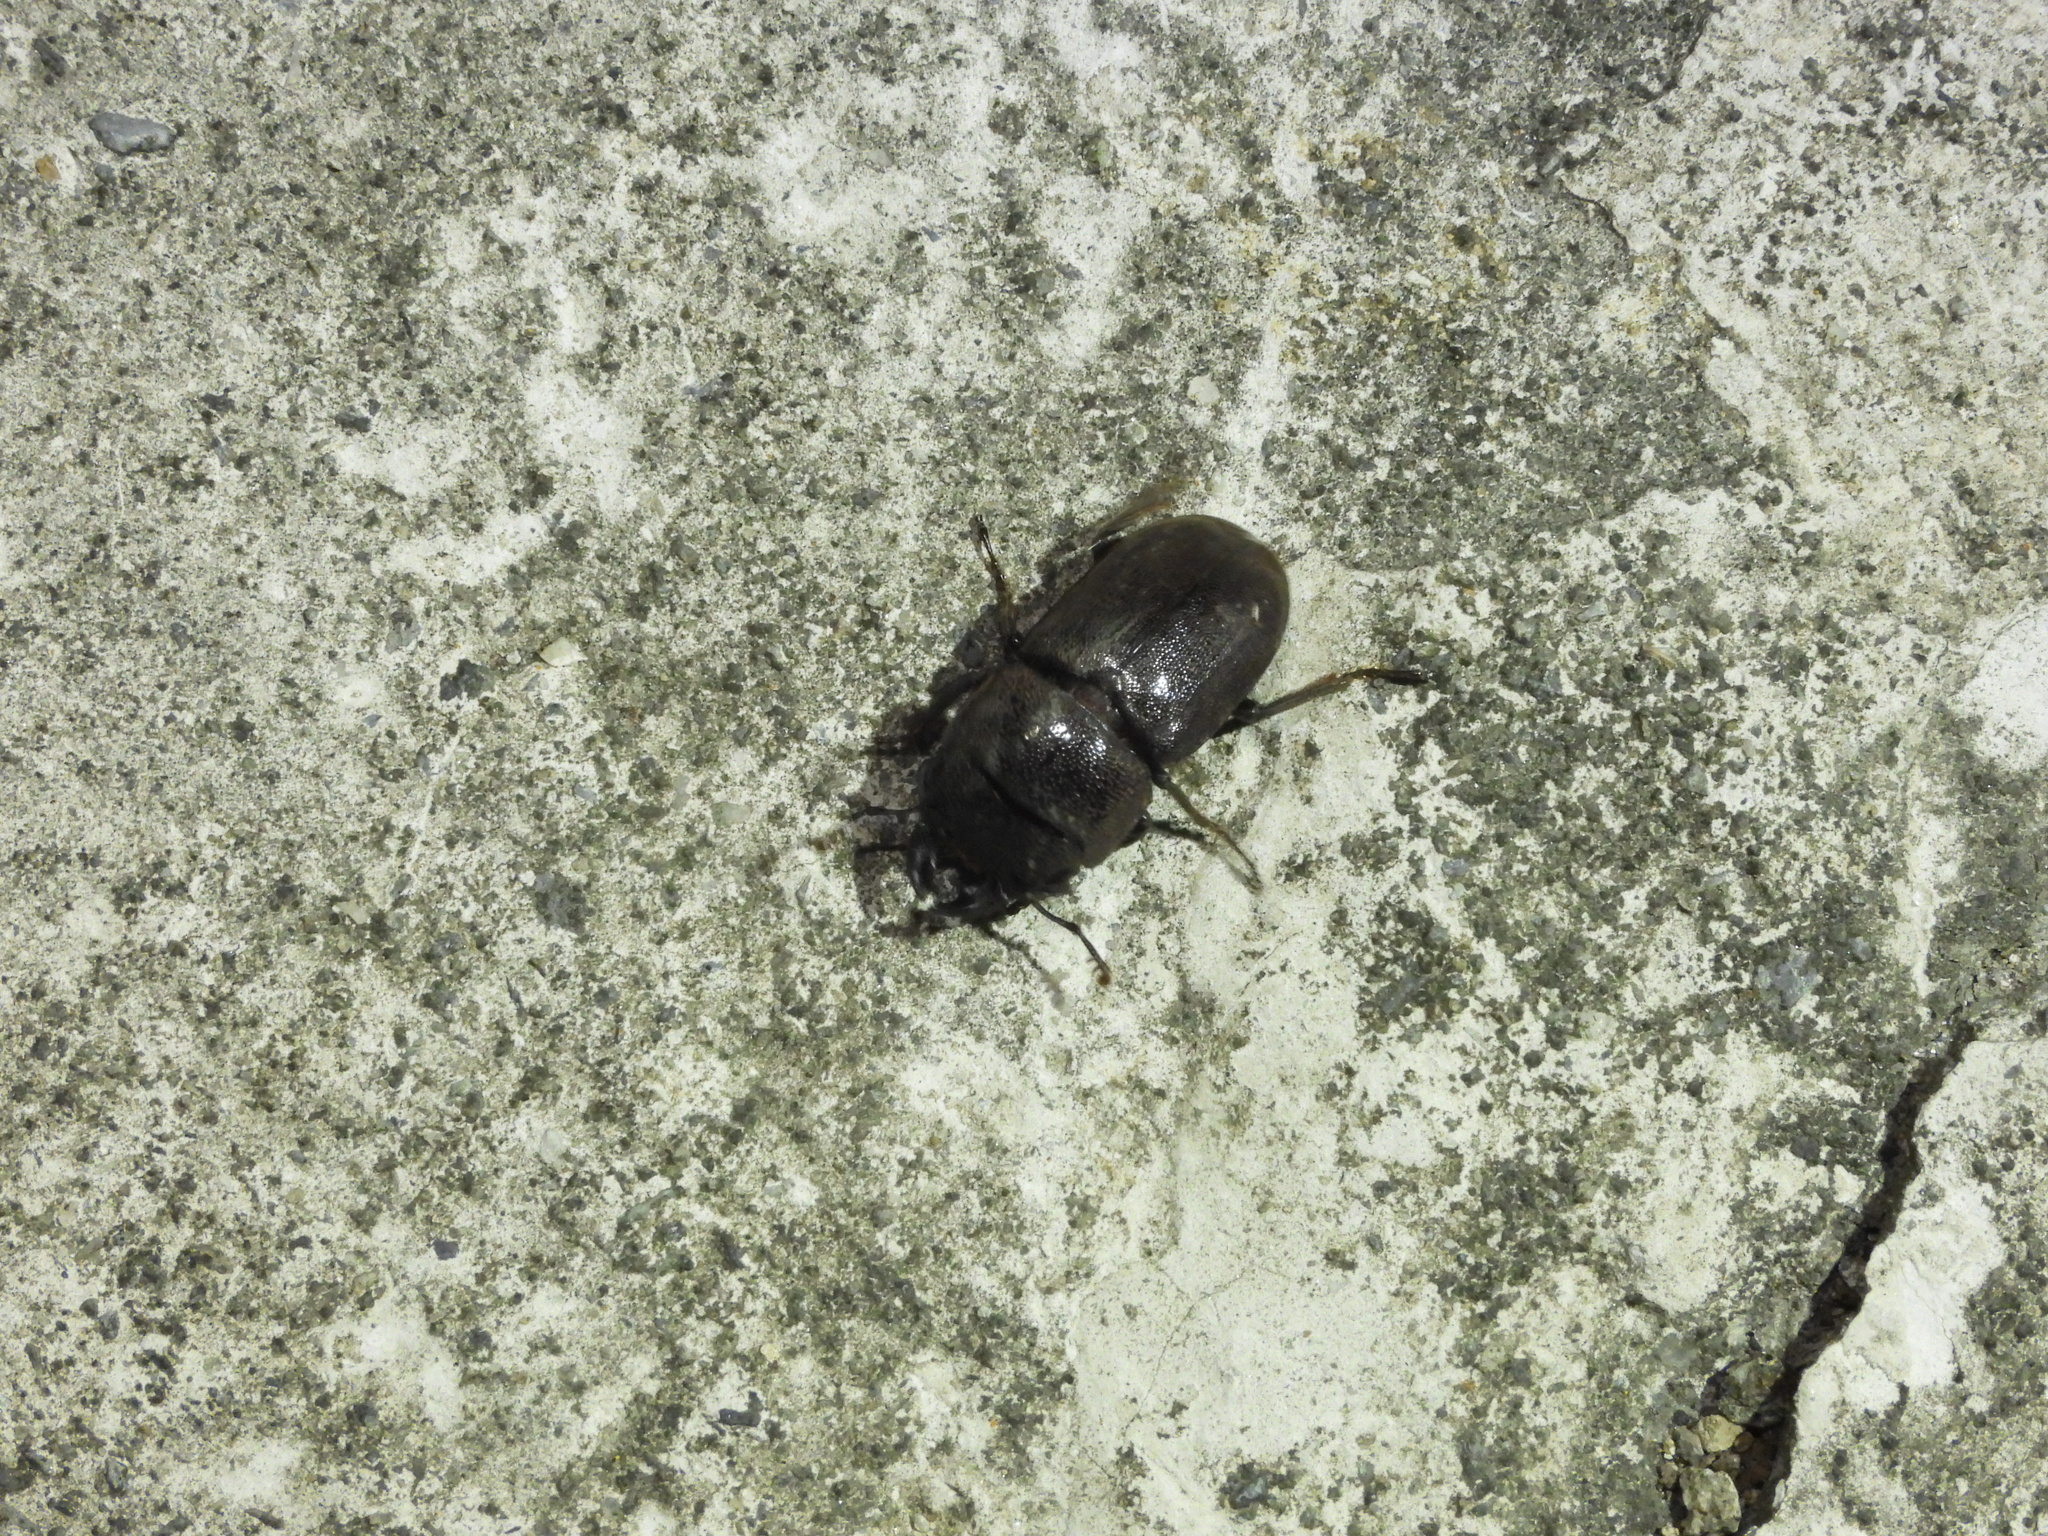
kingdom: Animalia
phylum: Arthropoda
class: Insecta
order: Coleoptera
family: Lucanidae
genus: Metallactulus
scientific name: Metallactulus parvulus
